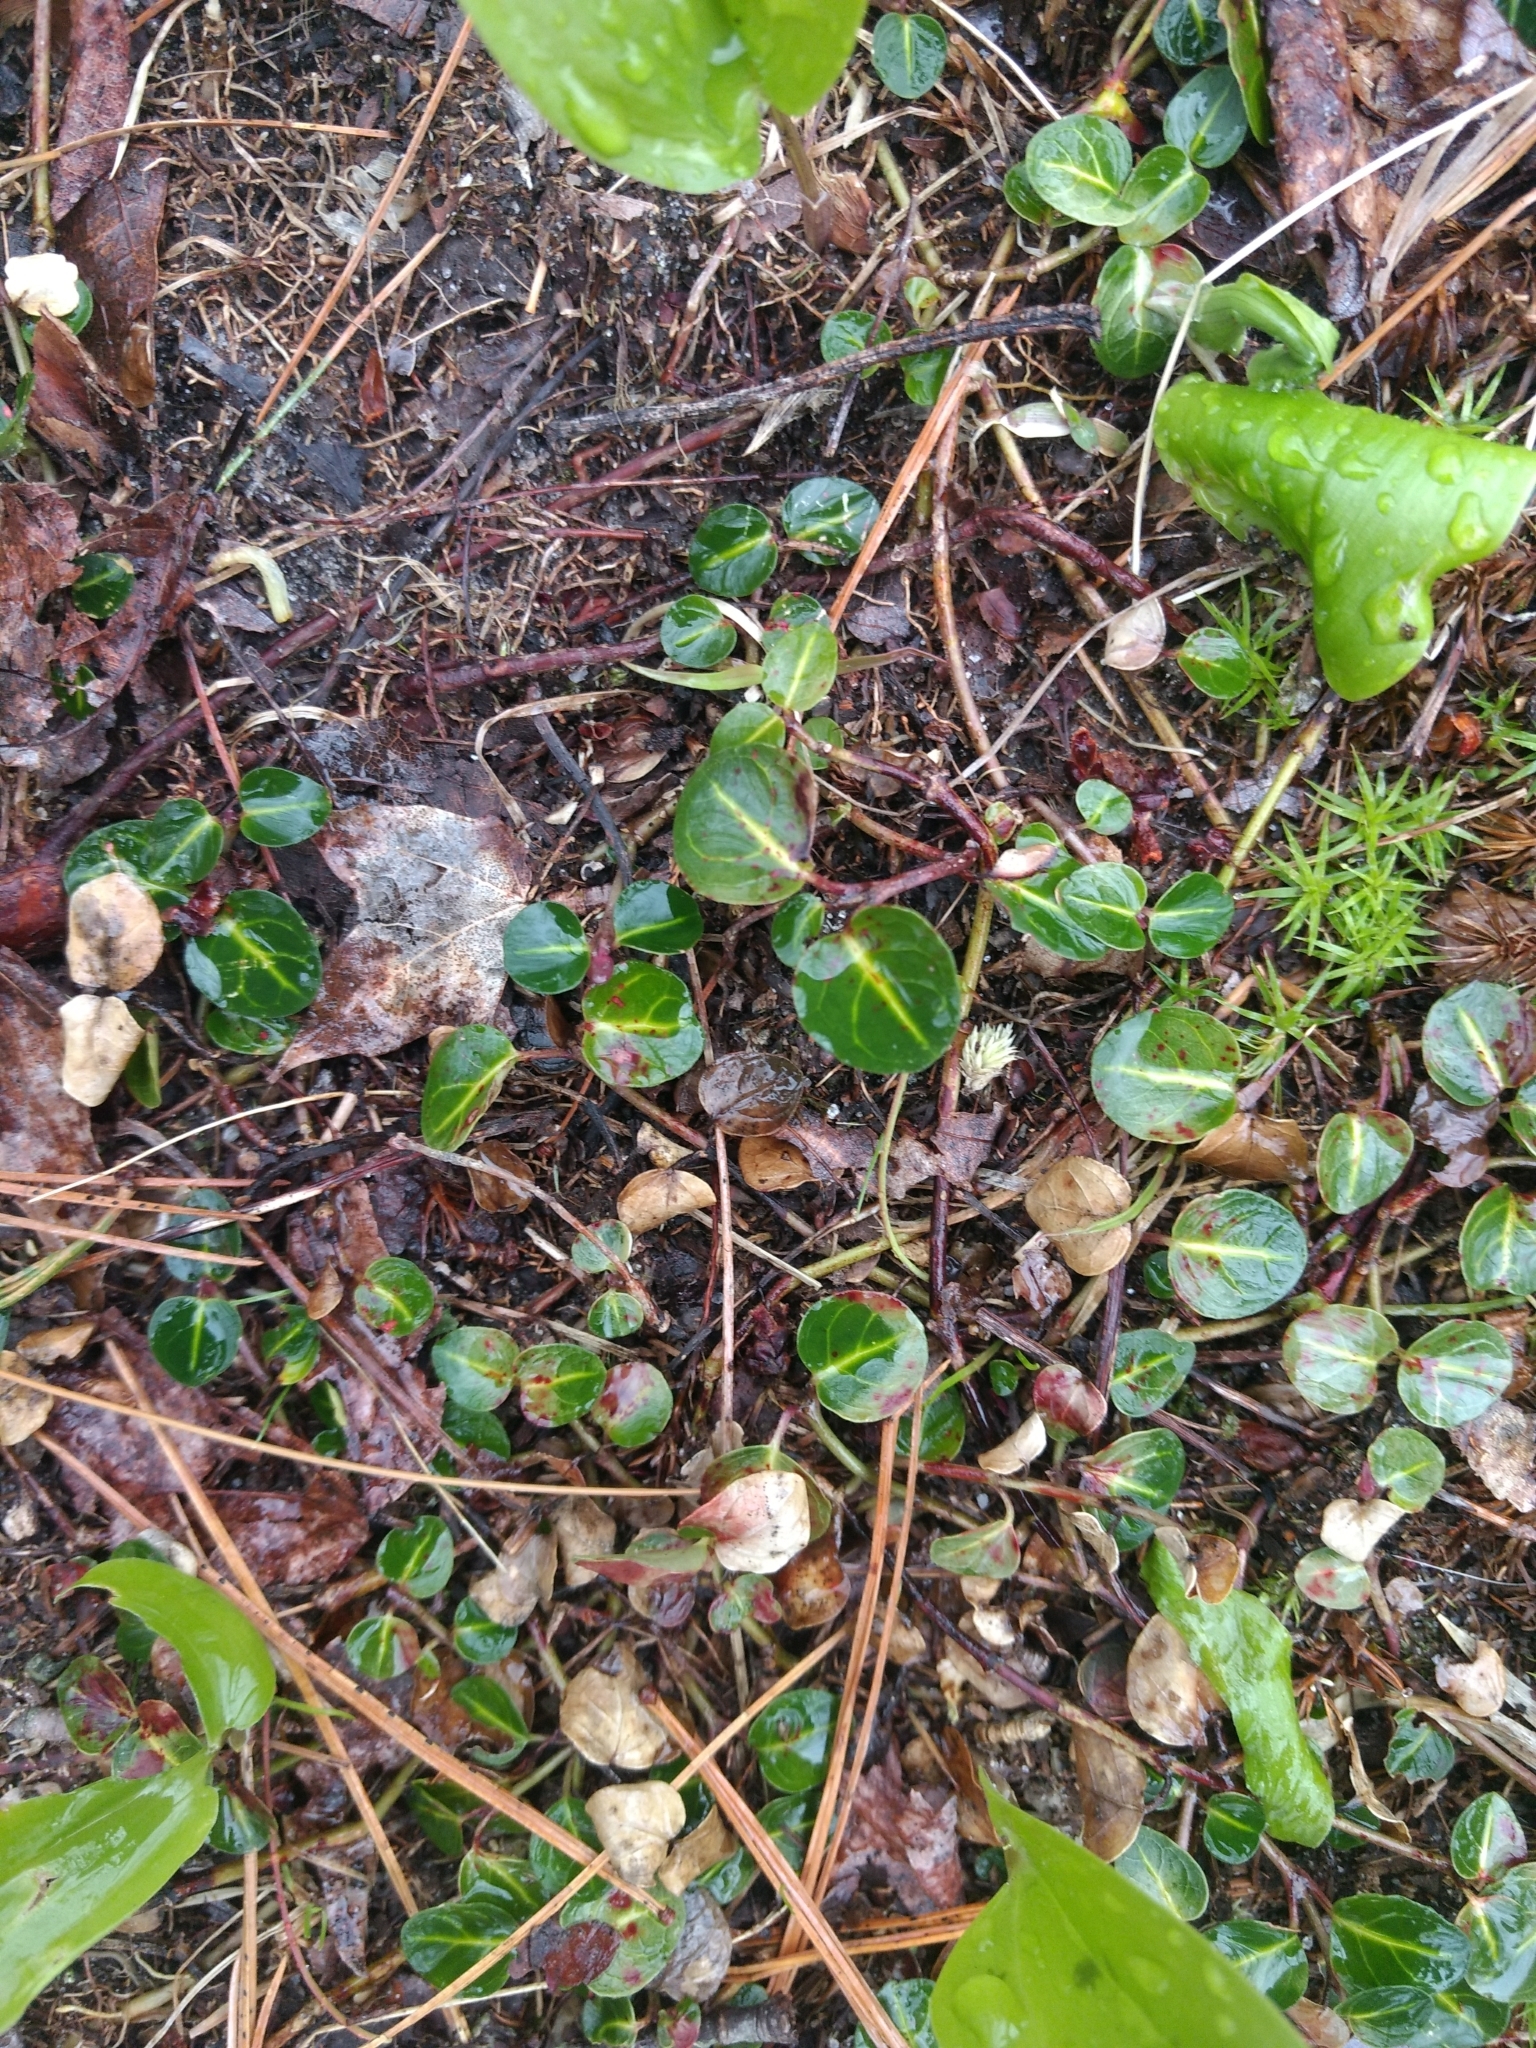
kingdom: Plantae
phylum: Tracheophyta
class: Magnoliopsida
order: Gentianales
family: Rubiaceae
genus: Mitchella
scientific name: Mitchella repens
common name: Partridge-berry
